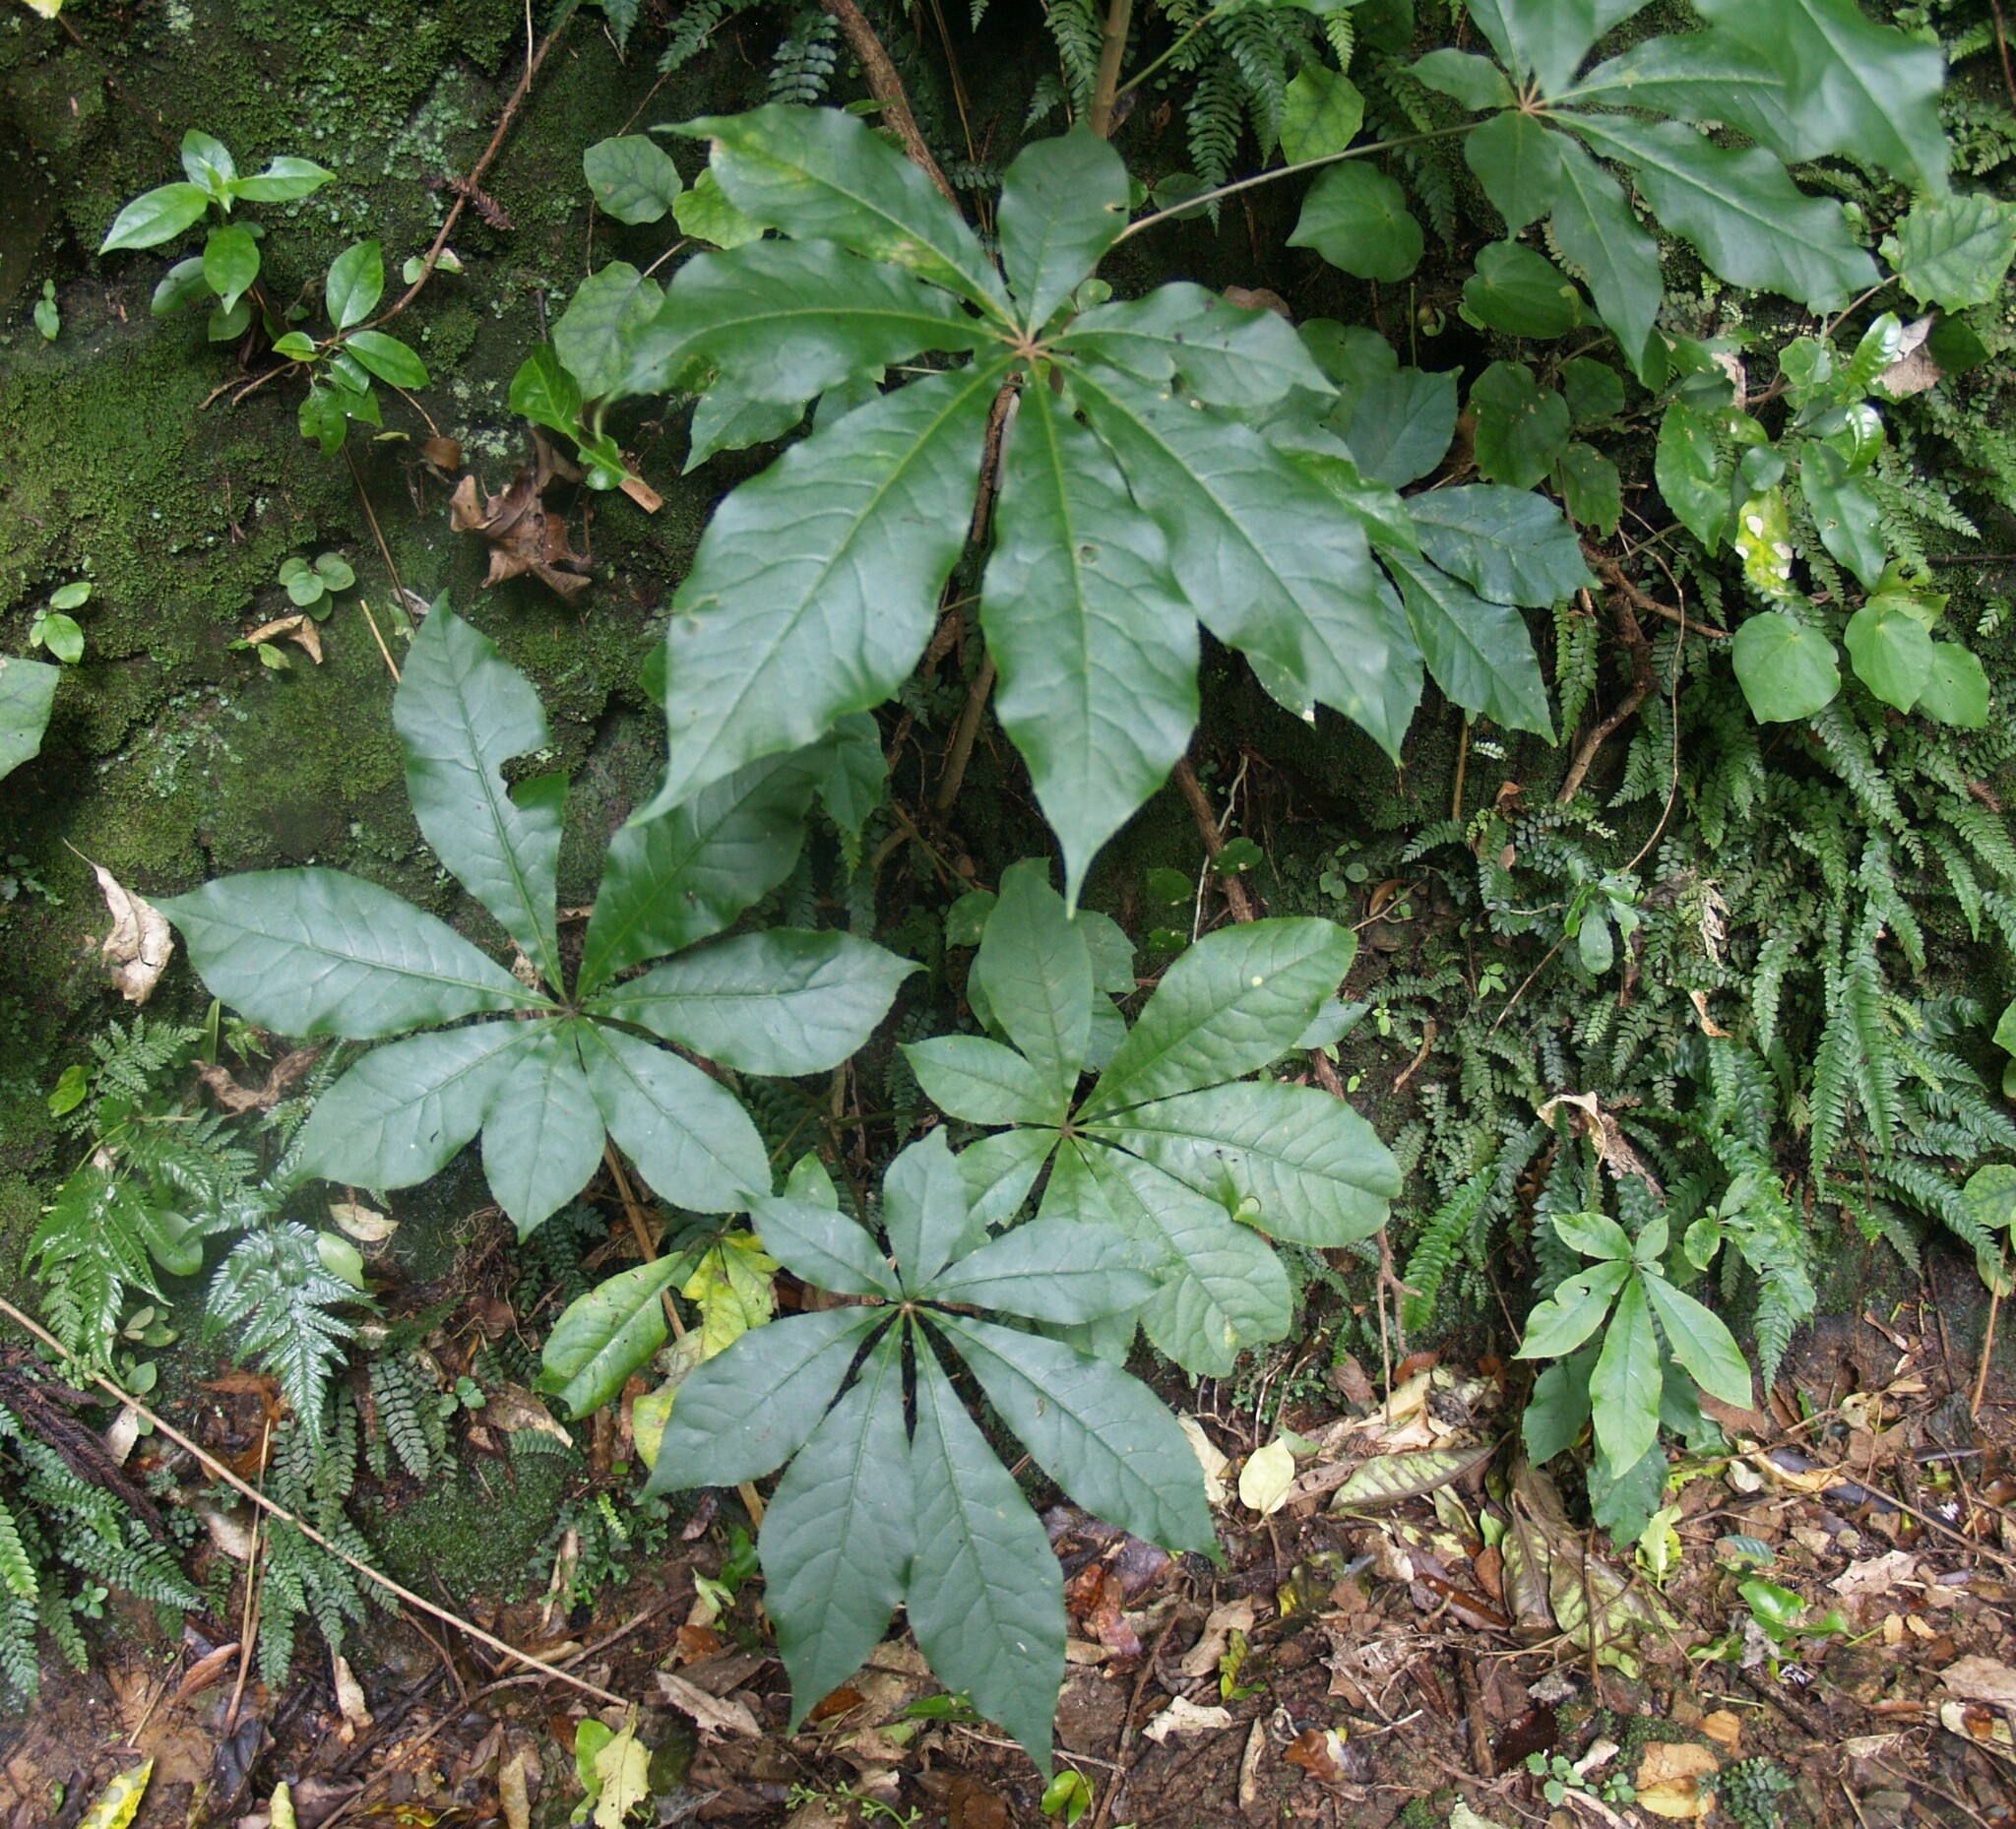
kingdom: Plantae
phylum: Tracheophyta
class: Magnoliopsida
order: Apiales
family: Araliaceae
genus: Schefflera
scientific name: Schefflera digitata
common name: Pate
